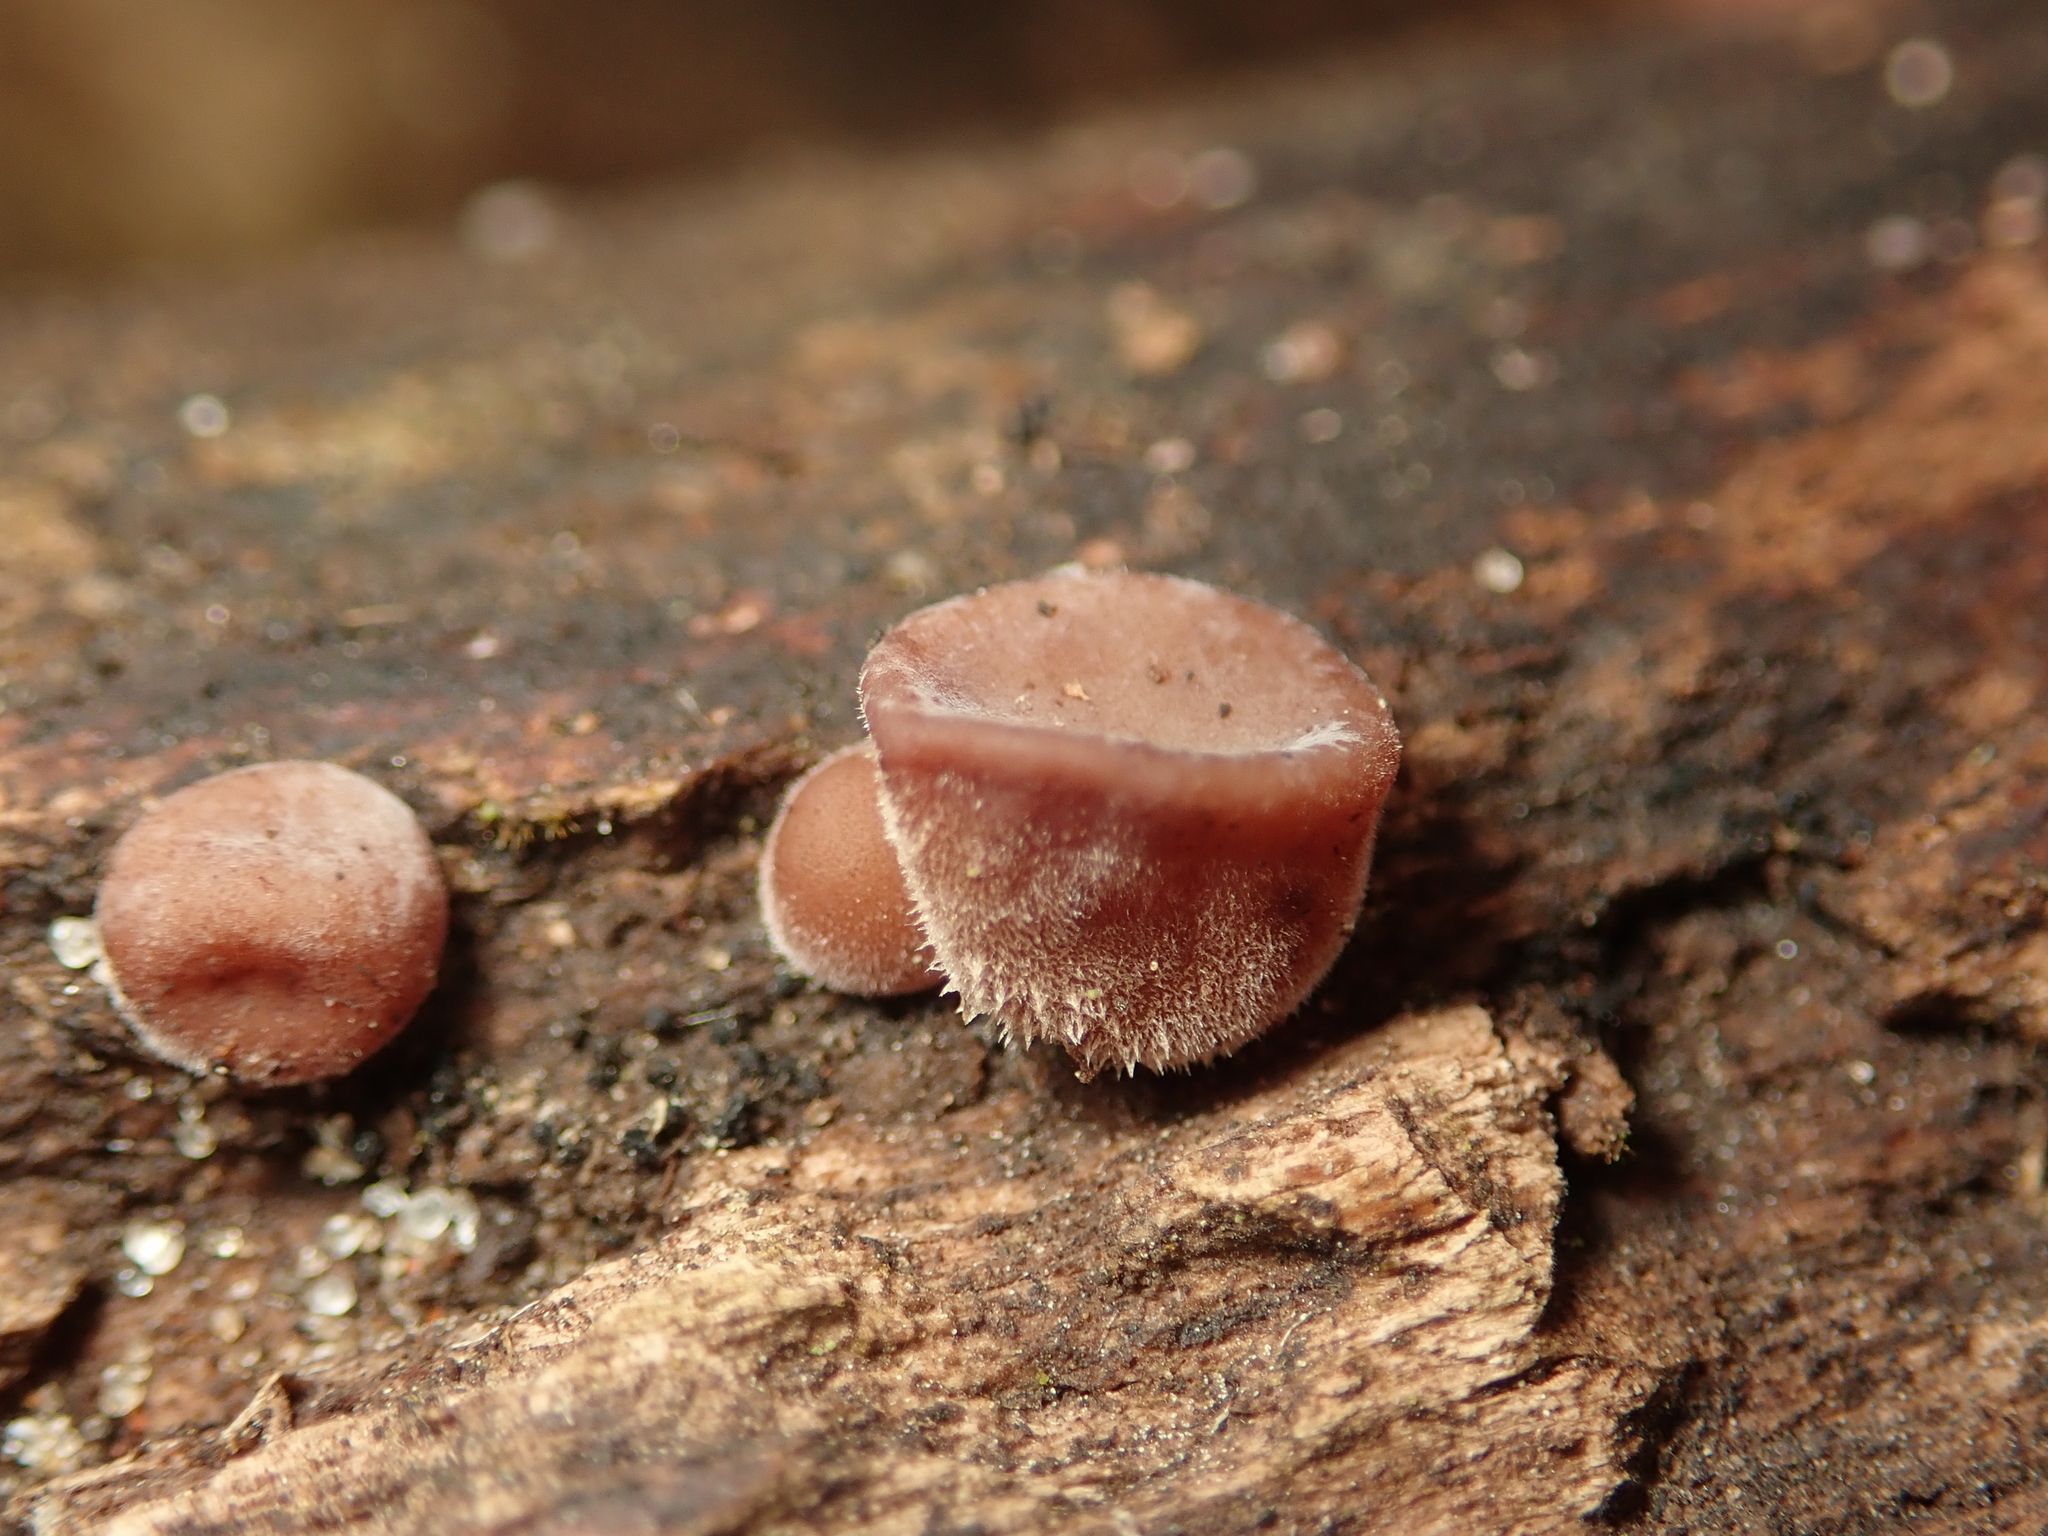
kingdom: Fungi
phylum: Basidiomycota
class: Agaricomycetes
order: Auriculariales
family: Auriculariaceae
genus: Auricularia
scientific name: Auricularia auricula-judae
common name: Jelly ear
